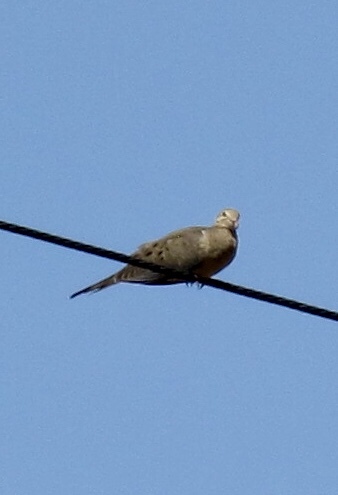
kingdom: Animalia
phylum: Chordata
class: Aves
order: Columbiformes
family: Columbidae
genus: Zenaida
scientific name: Zenaida macroura
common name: Mourning dove
